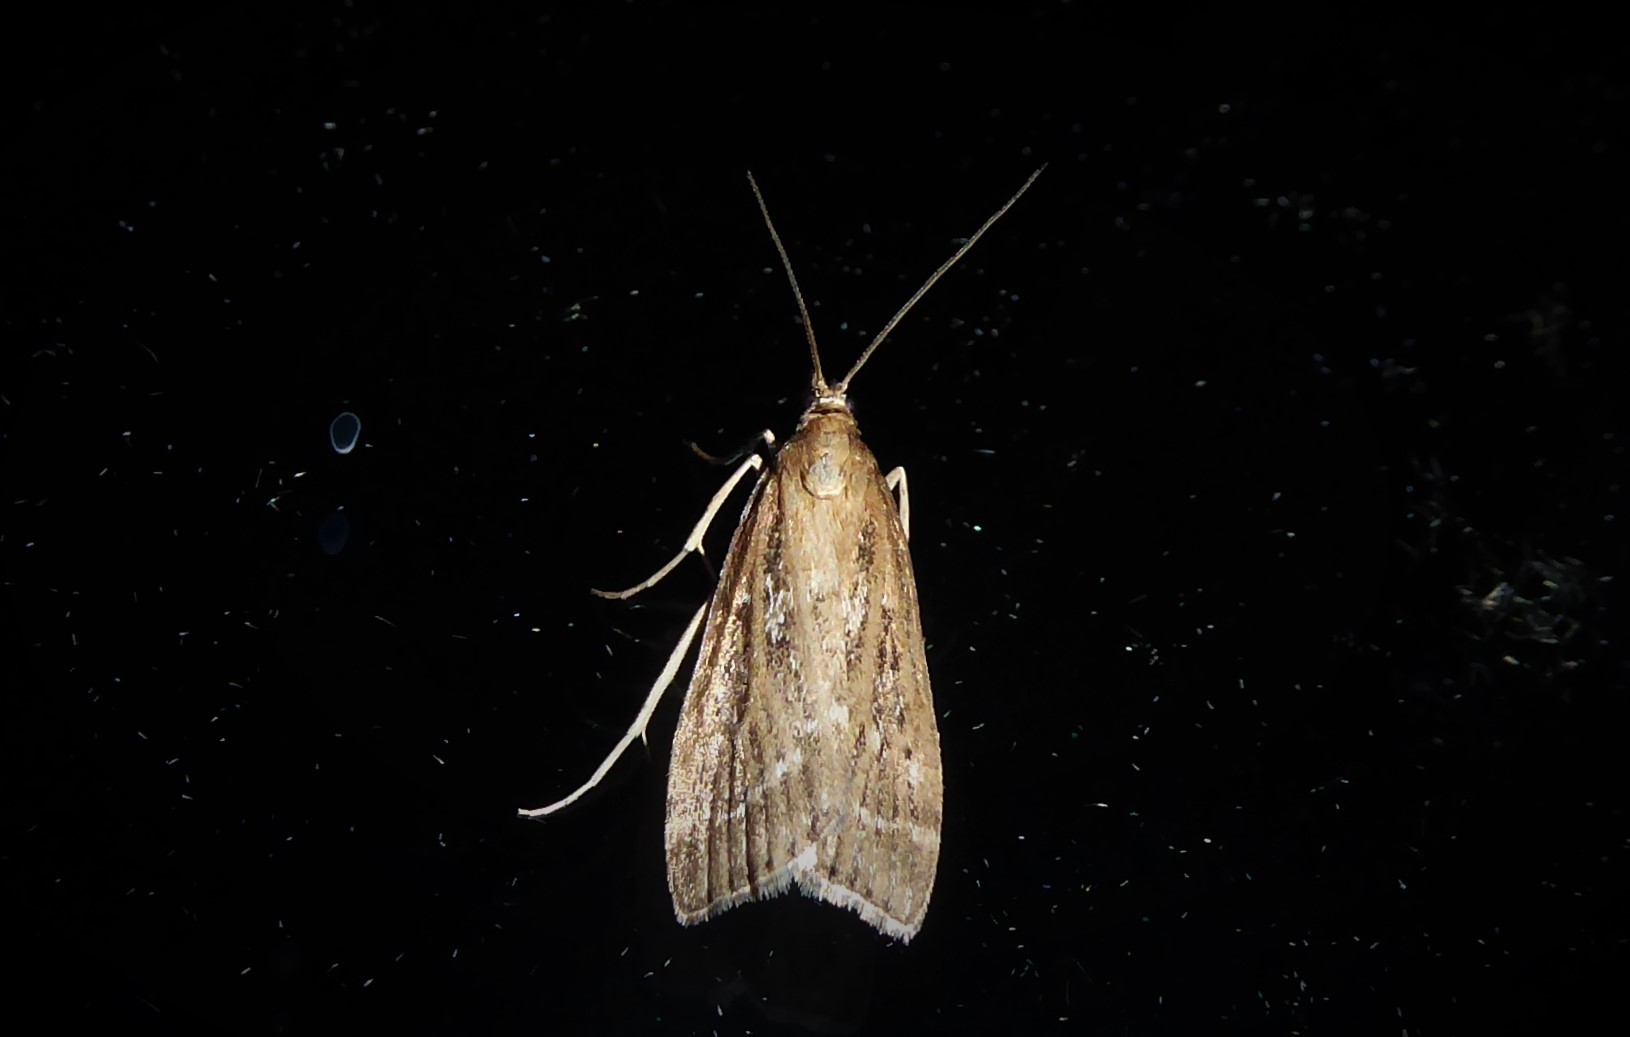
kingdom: Animalia
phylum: Arthropoda
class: Insecta
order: Lepidoptera
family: Crambidae
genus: Eudonia
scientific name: Eudonia octophora
